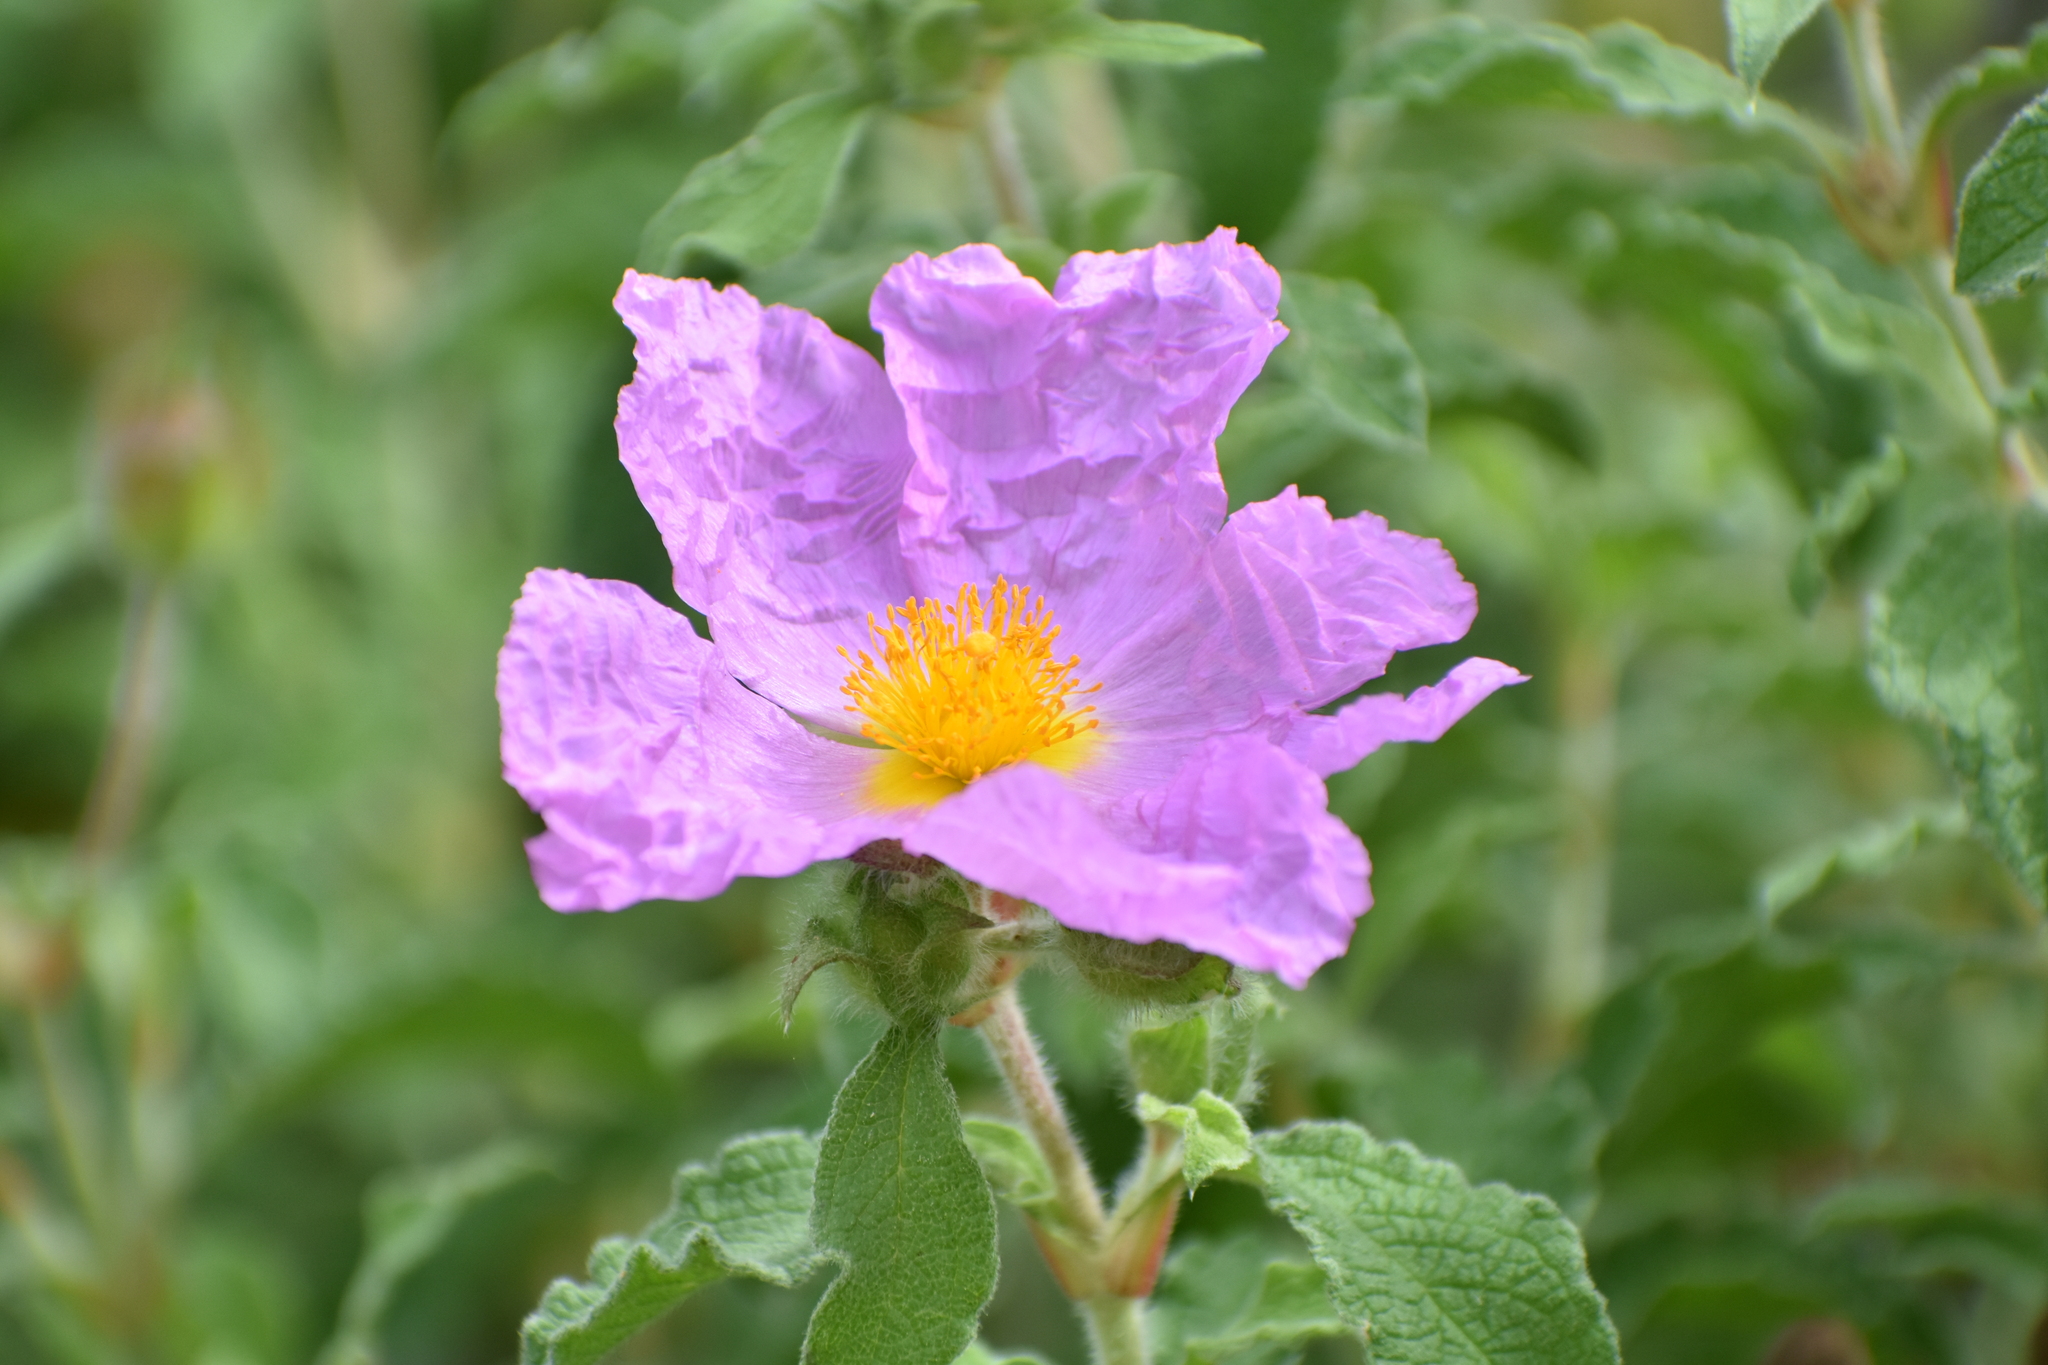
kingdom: Plantae
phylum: Tracheophyta
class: Magnoliopsida
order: Malvales
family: Cistaceae
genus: Cistus
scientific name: Cistus creticus
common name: Cretan rockrose
